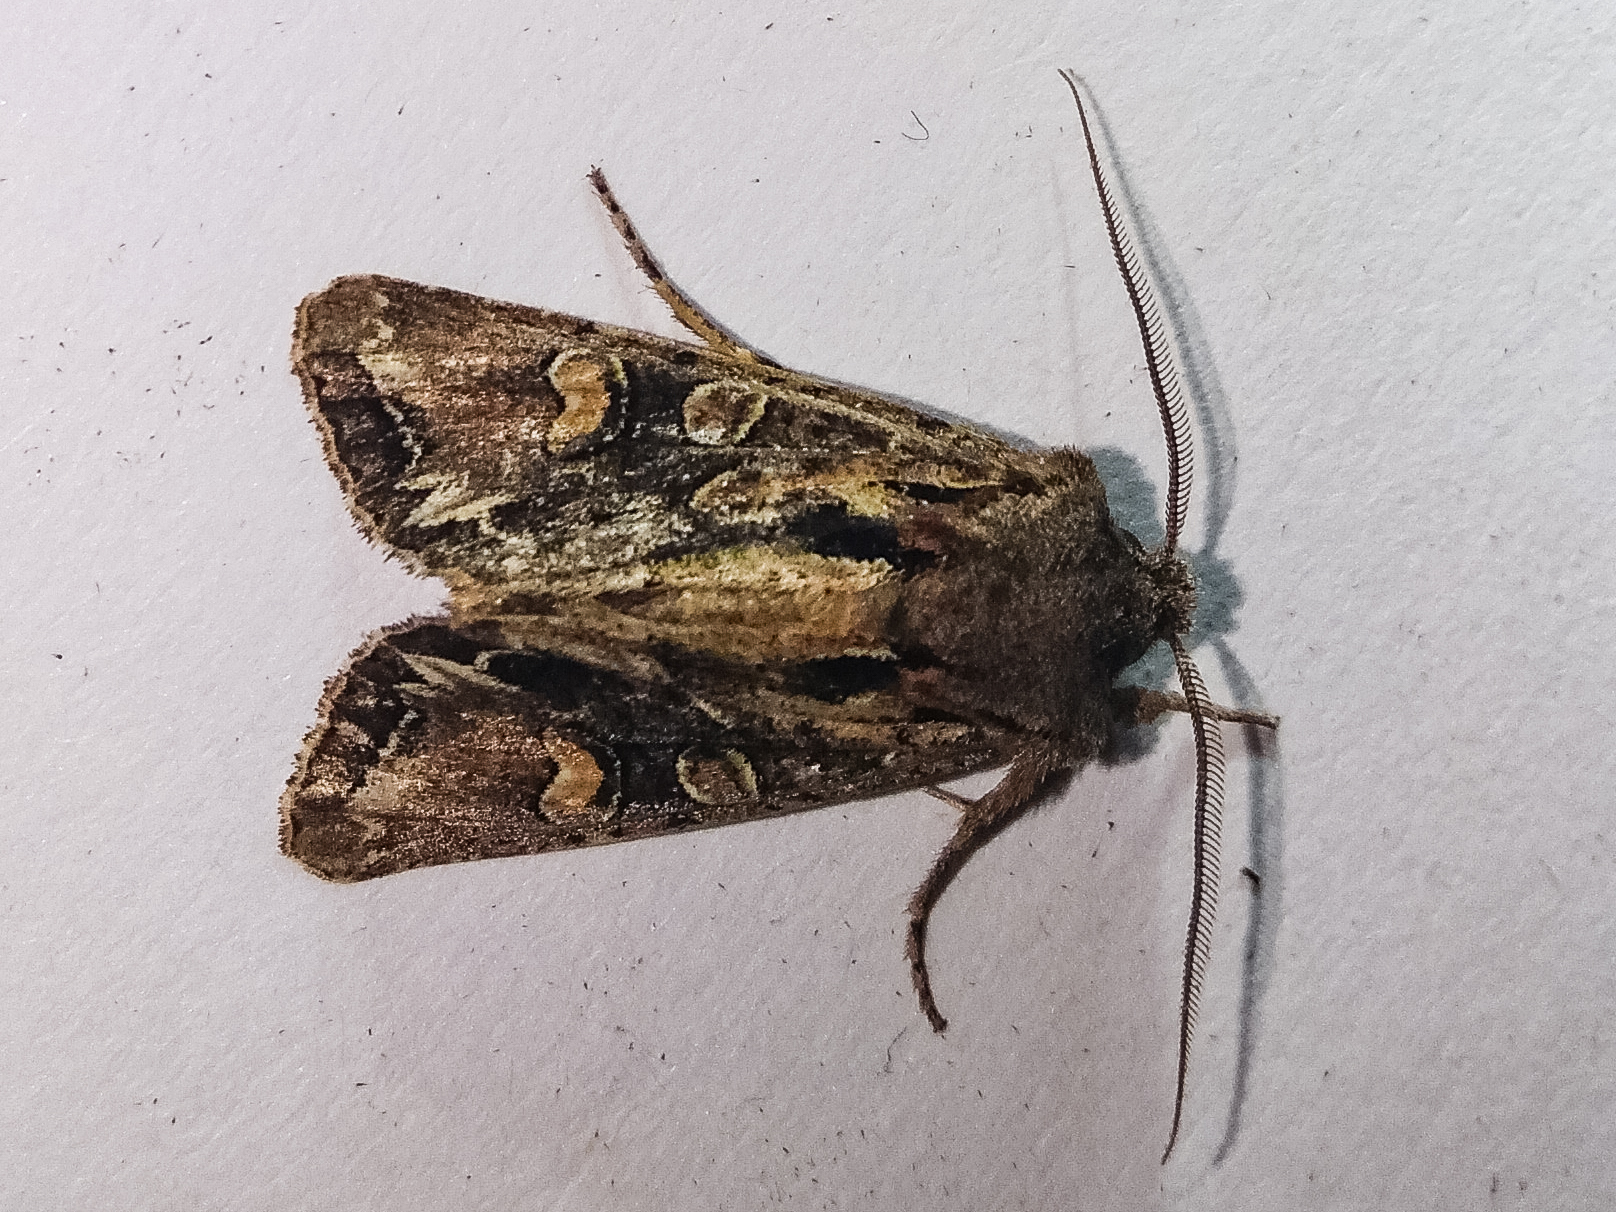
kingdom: Animalia
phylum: Arthropoda
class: Insecta
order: Lepidoptera
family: Noctuidae
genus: Ichneutica
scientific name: Ichneutica insignis
